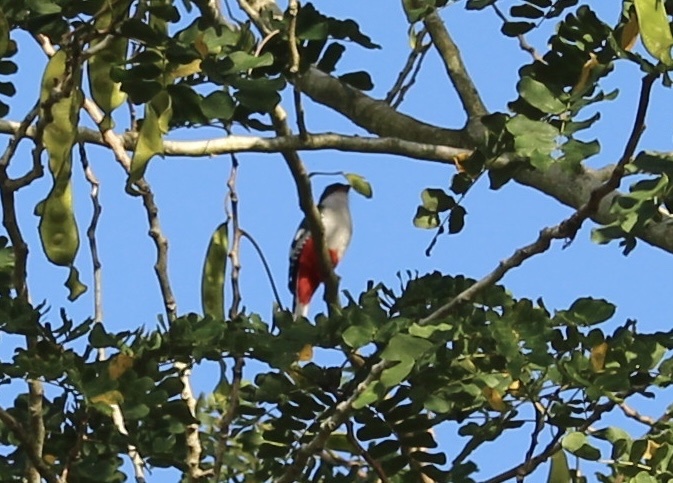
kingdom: Animalia
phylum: Chordata
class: Aves
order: Trogoniformes
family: Trogonidae
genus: Priotelus
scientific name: Priotelus temnurus
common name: Cuban trogon
